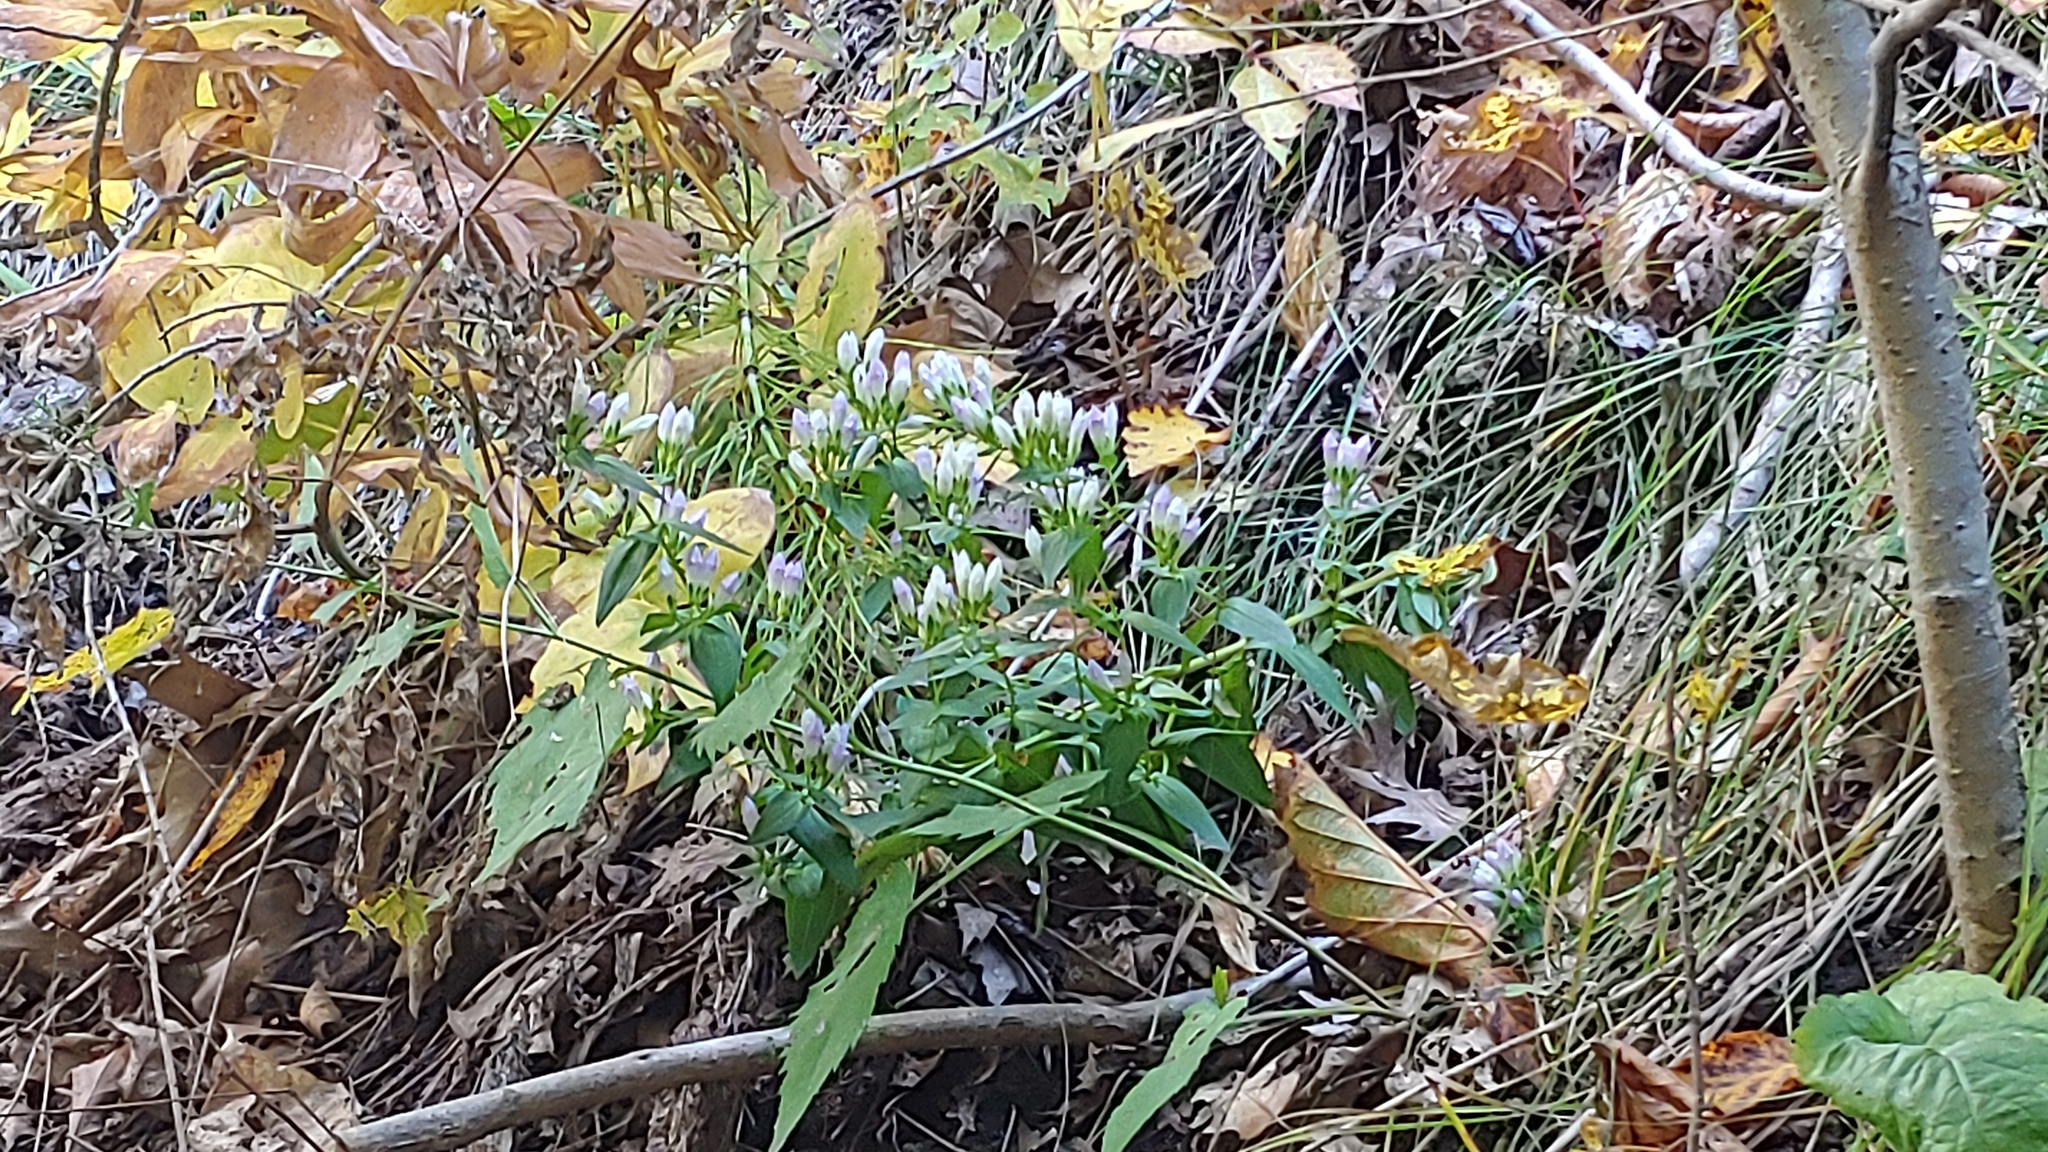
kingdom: Plantae
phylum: Tracheophyta
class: Magnoliopsida
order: Gentianales
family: Gentianaceae
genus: Gentianella
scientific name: Gentianella quinquefolia
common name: Agueweed
